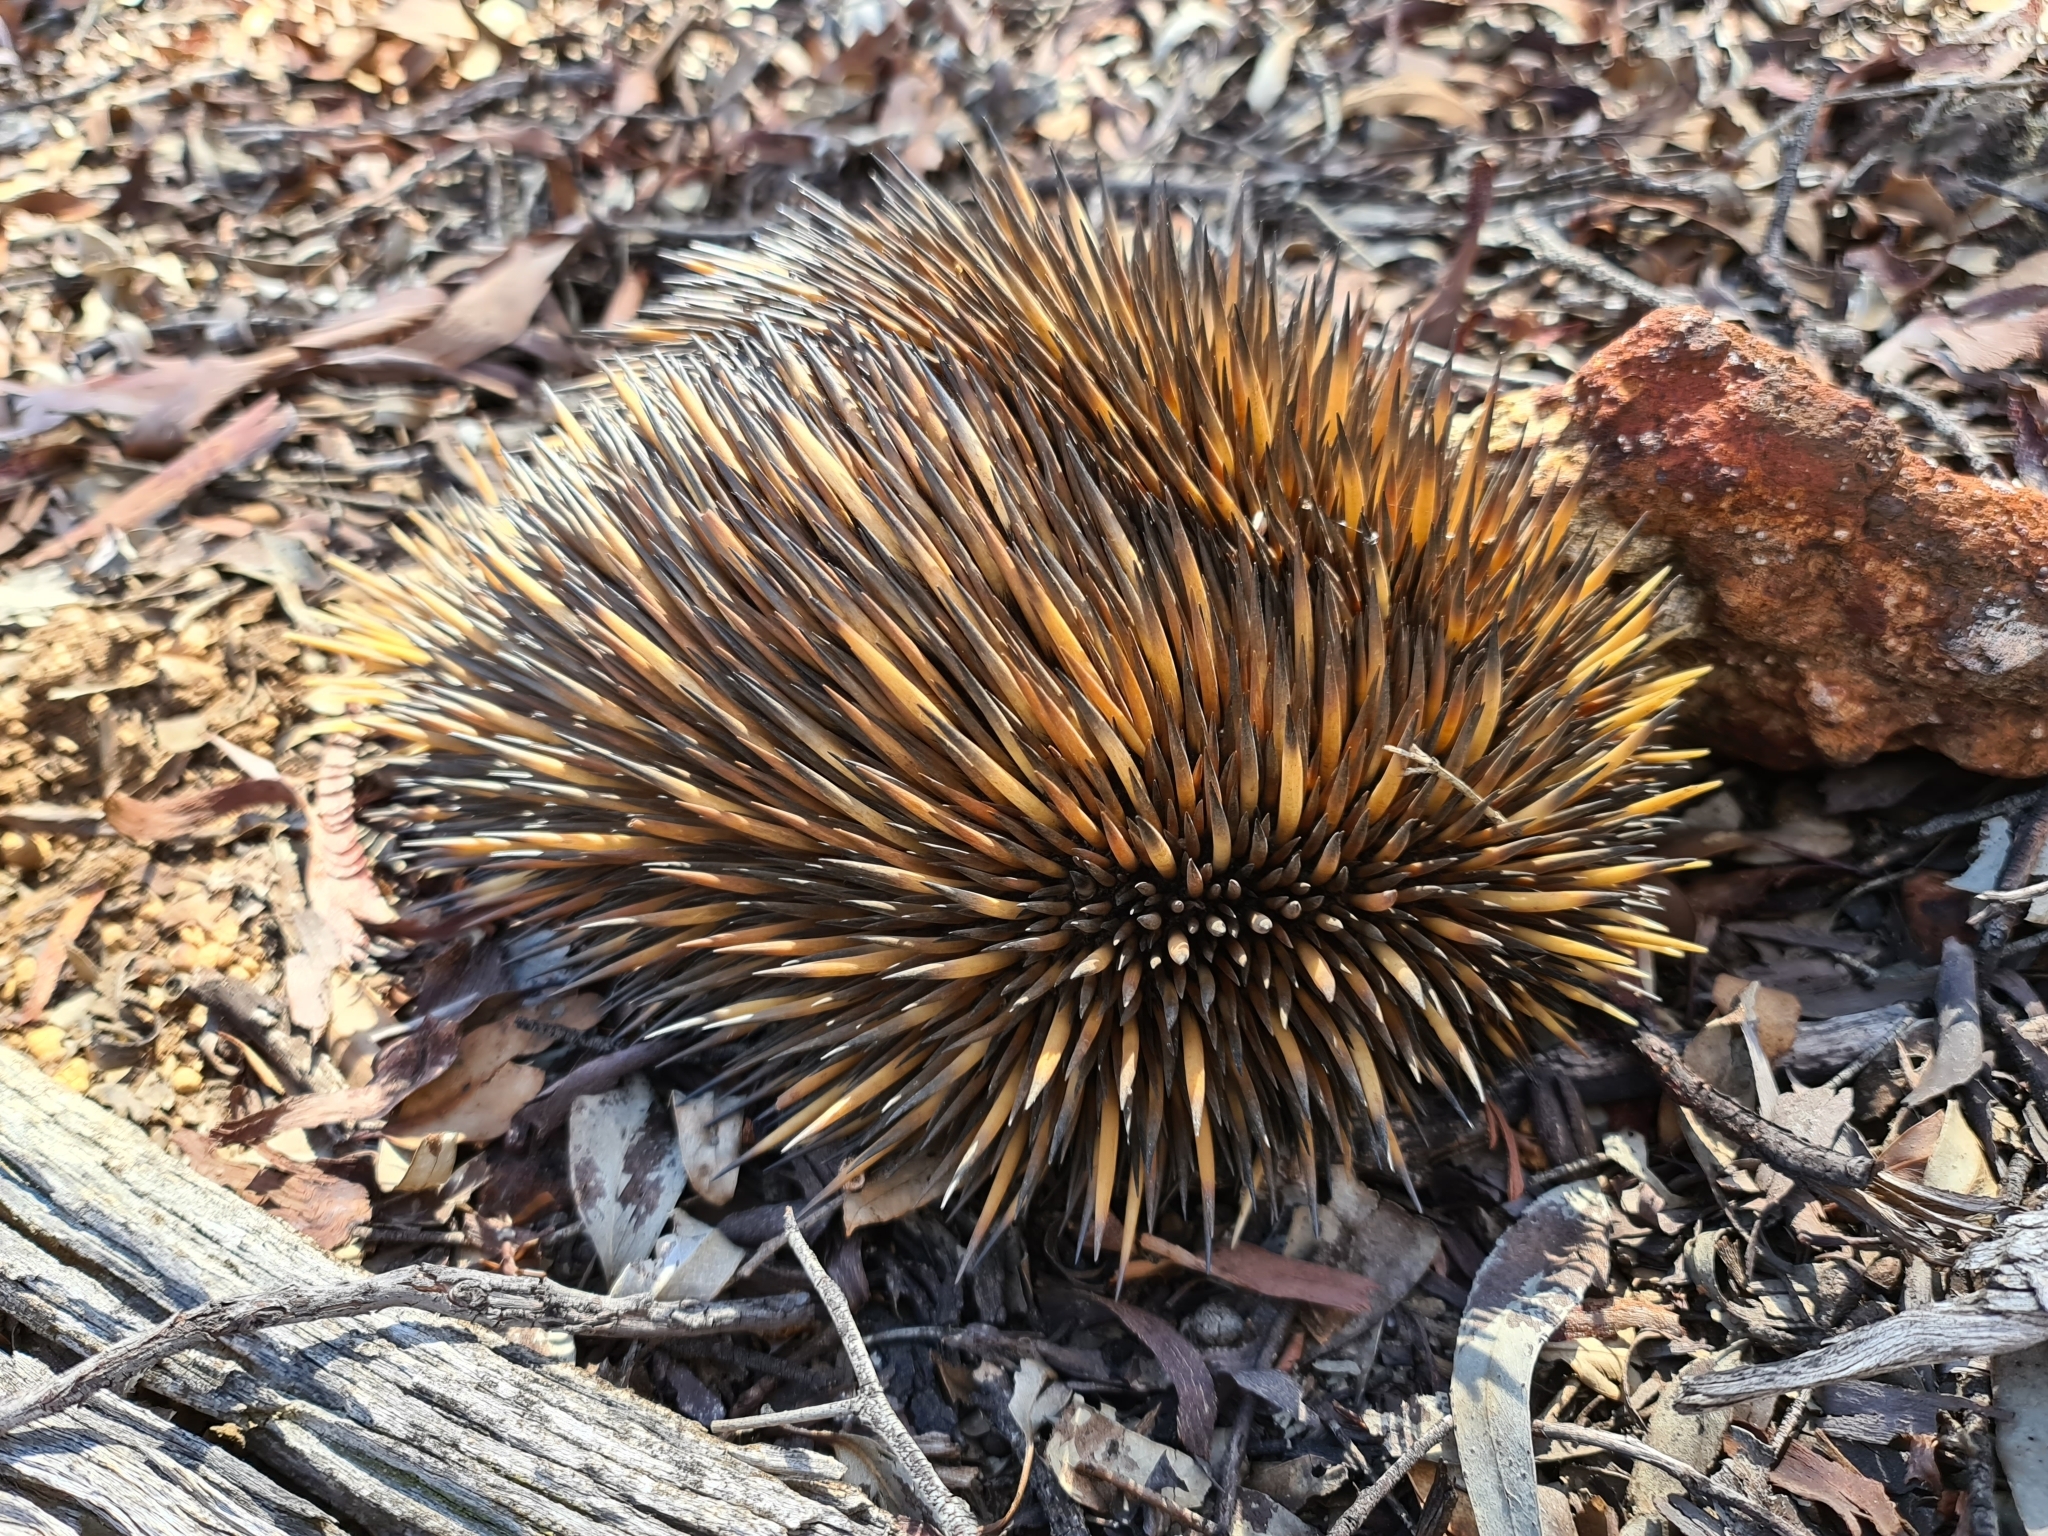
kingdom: Animalia
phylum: Chordata
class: Mammalia
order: Monotremata
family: Tachyglossidae
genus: Tachyglossus
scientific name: Tachyglossus aculeatus
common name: Short-beaked echidna
